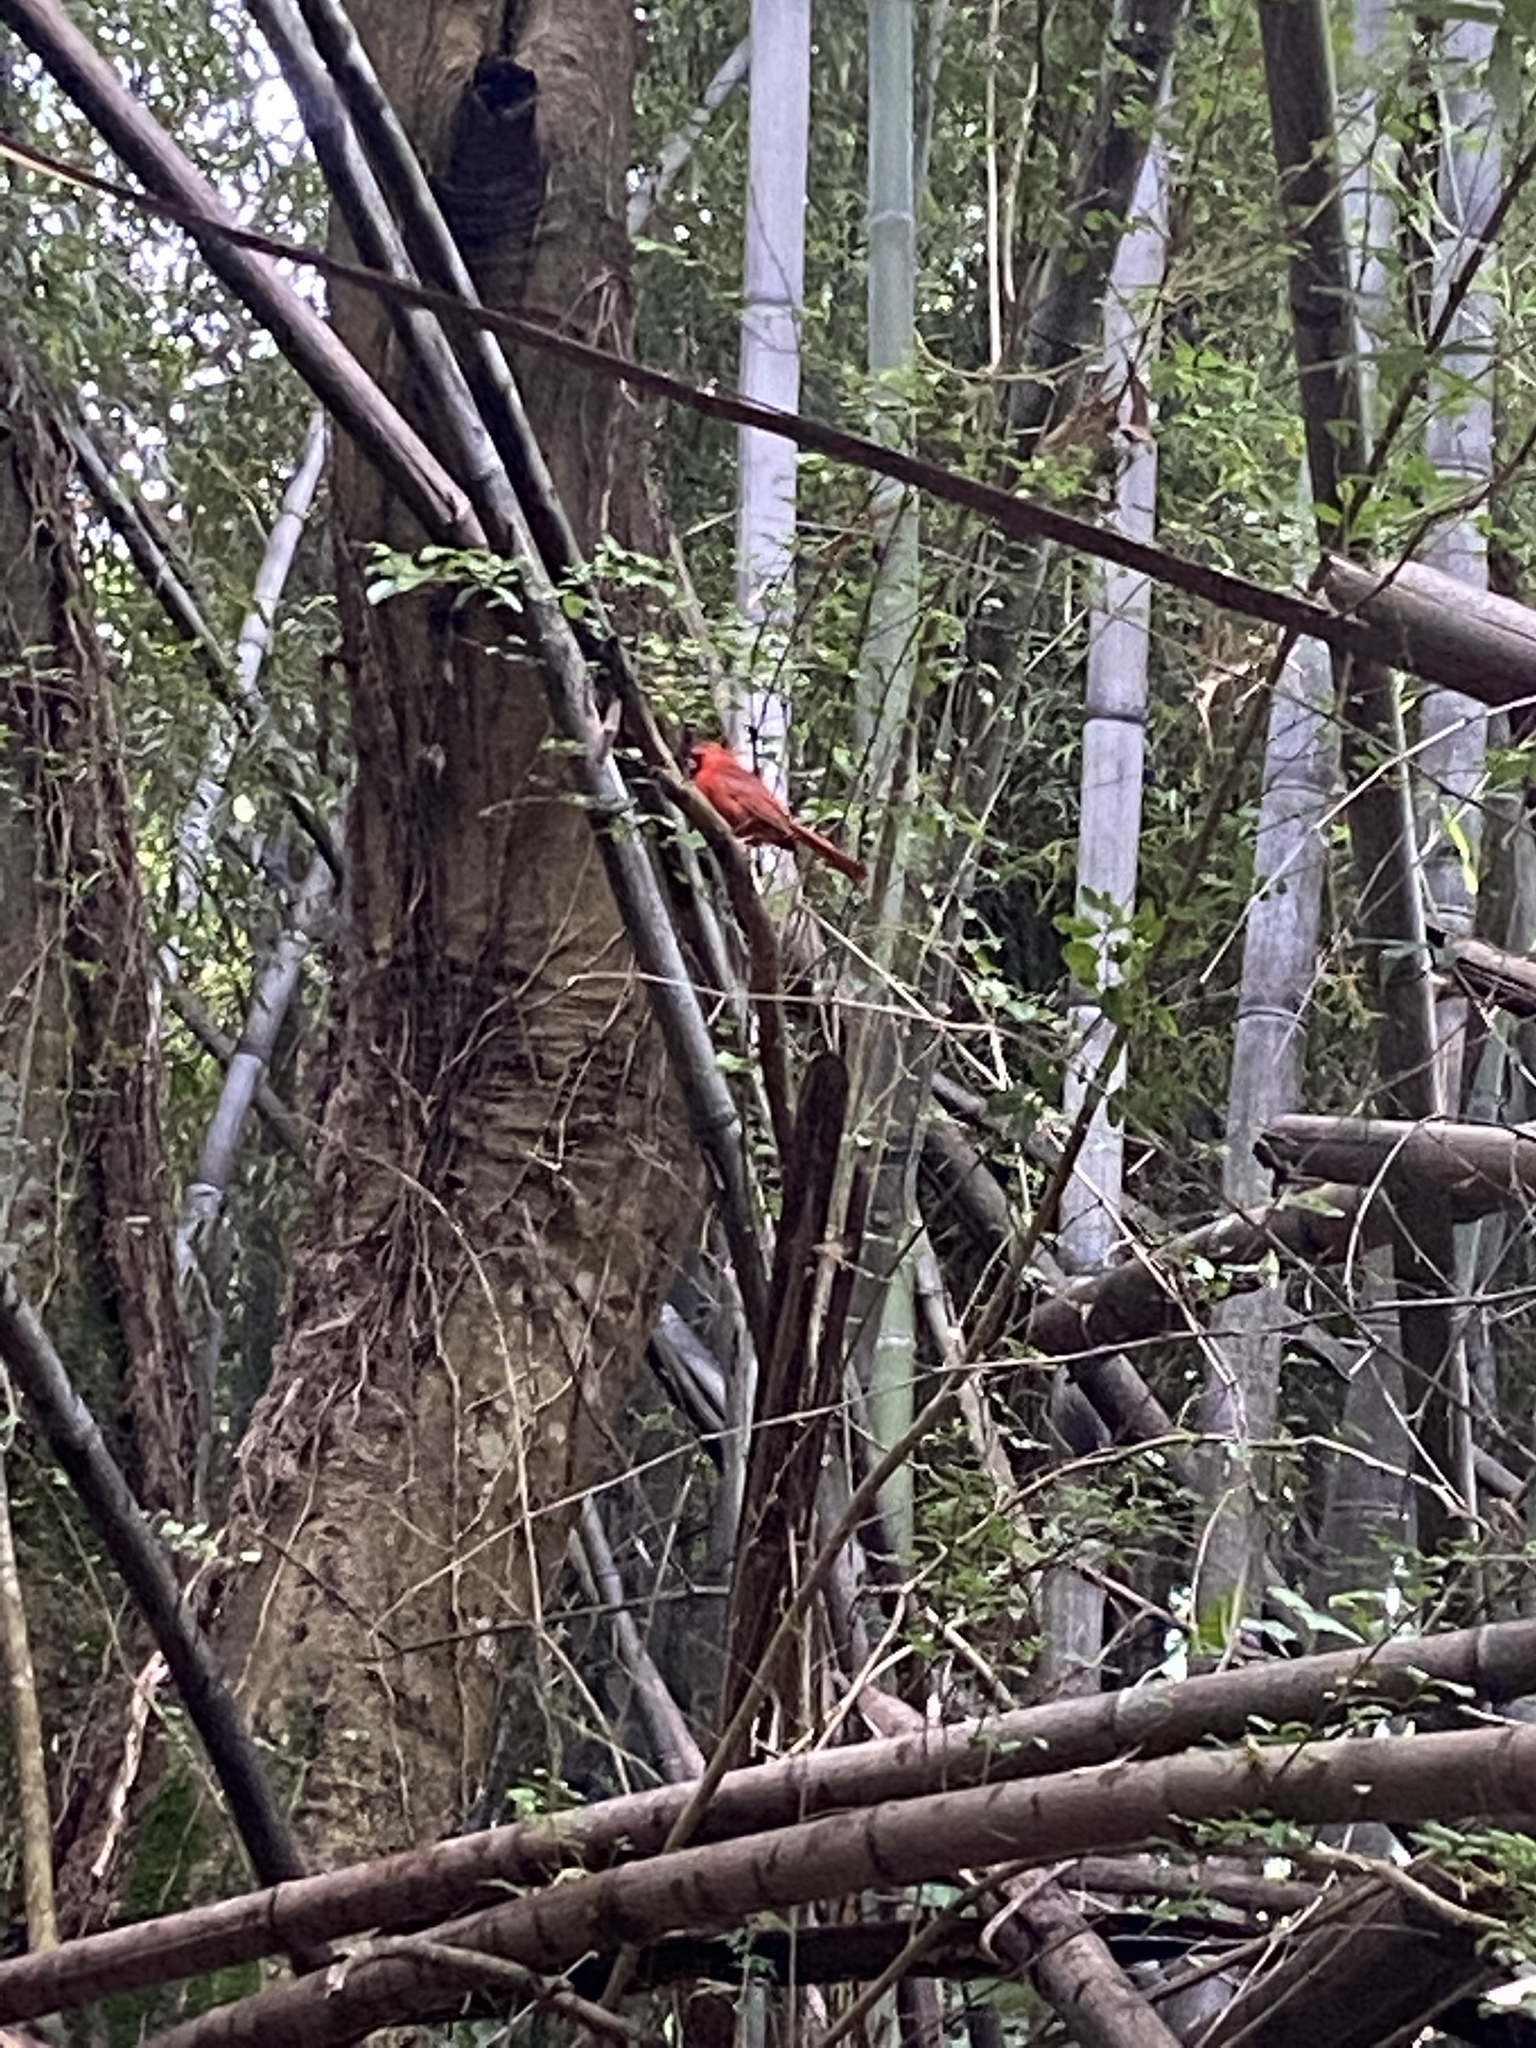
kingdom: Animalia
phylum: Chordata
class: Aves
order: Passeriformes
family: Cardinalidae
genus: Cardinalis
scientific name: Cardinalis cardinalis
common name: Northern cardinal
